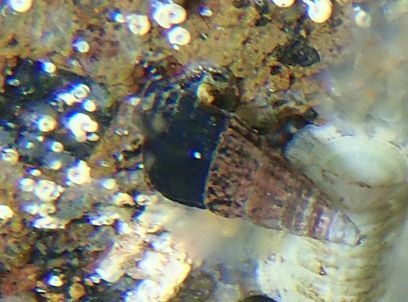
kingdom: Animalia
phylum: Mollusca
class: Gastropoda
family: Batillariidae
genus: Zeacumantus
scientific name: Zeacumantus subcarinatus
